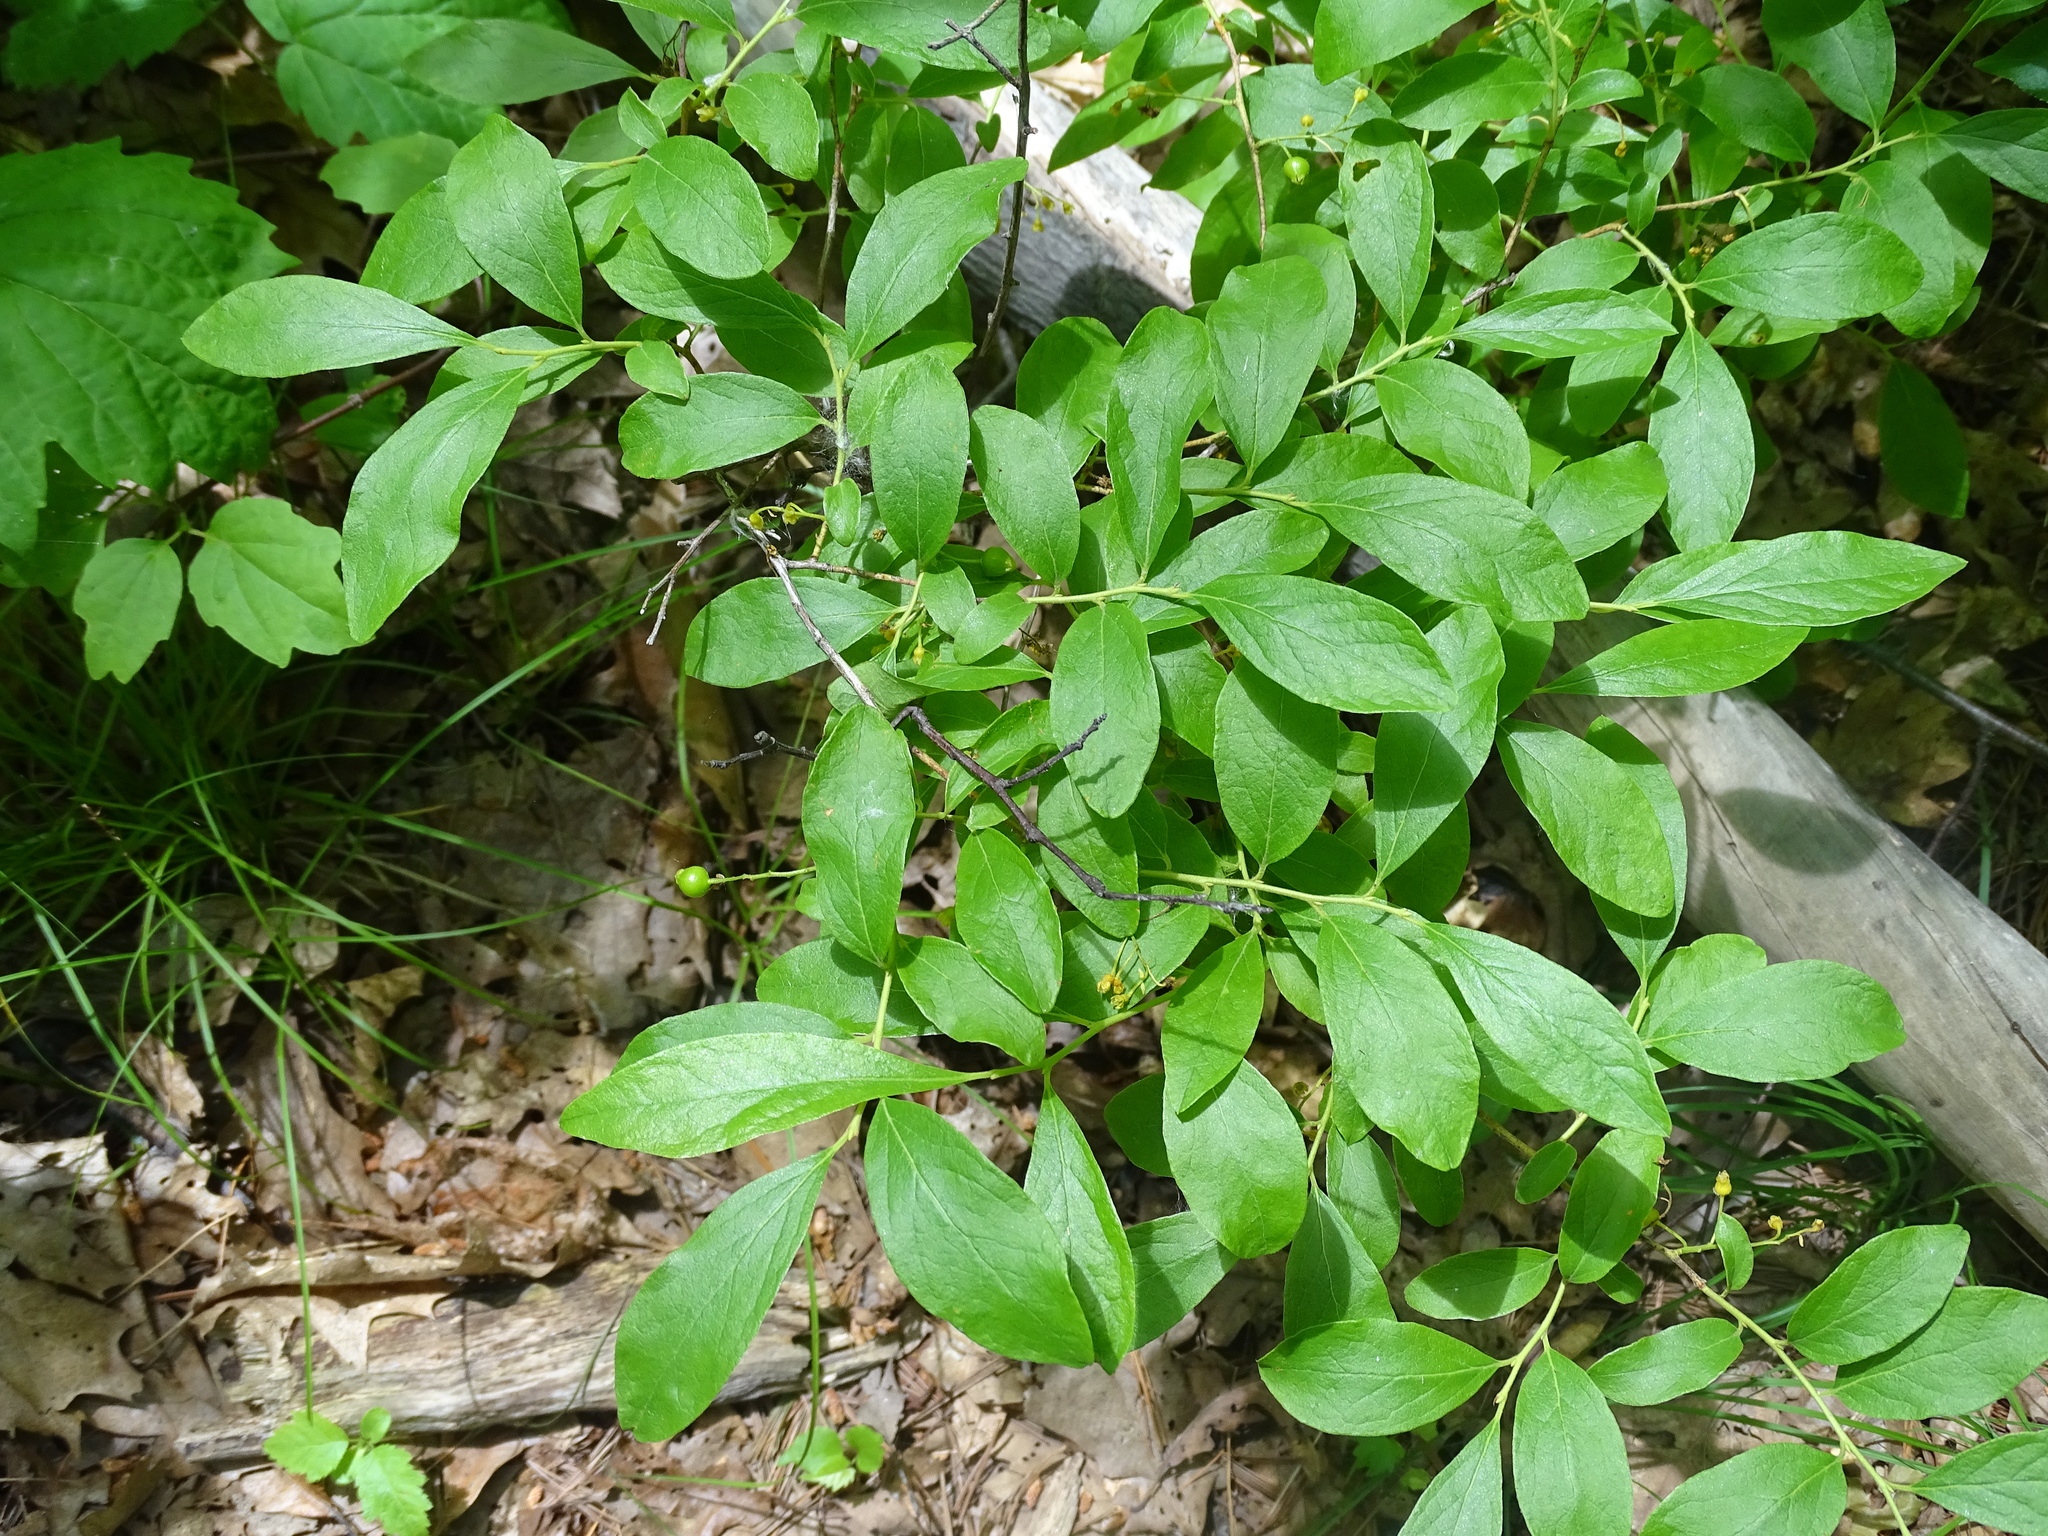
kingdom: Plantae
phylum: Tracheophyta
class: Magnoliopsida
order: Ericales
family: Ericaceae
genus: Gaylussacia
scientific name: Gaylussacia baccata
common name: Black huckleberry
